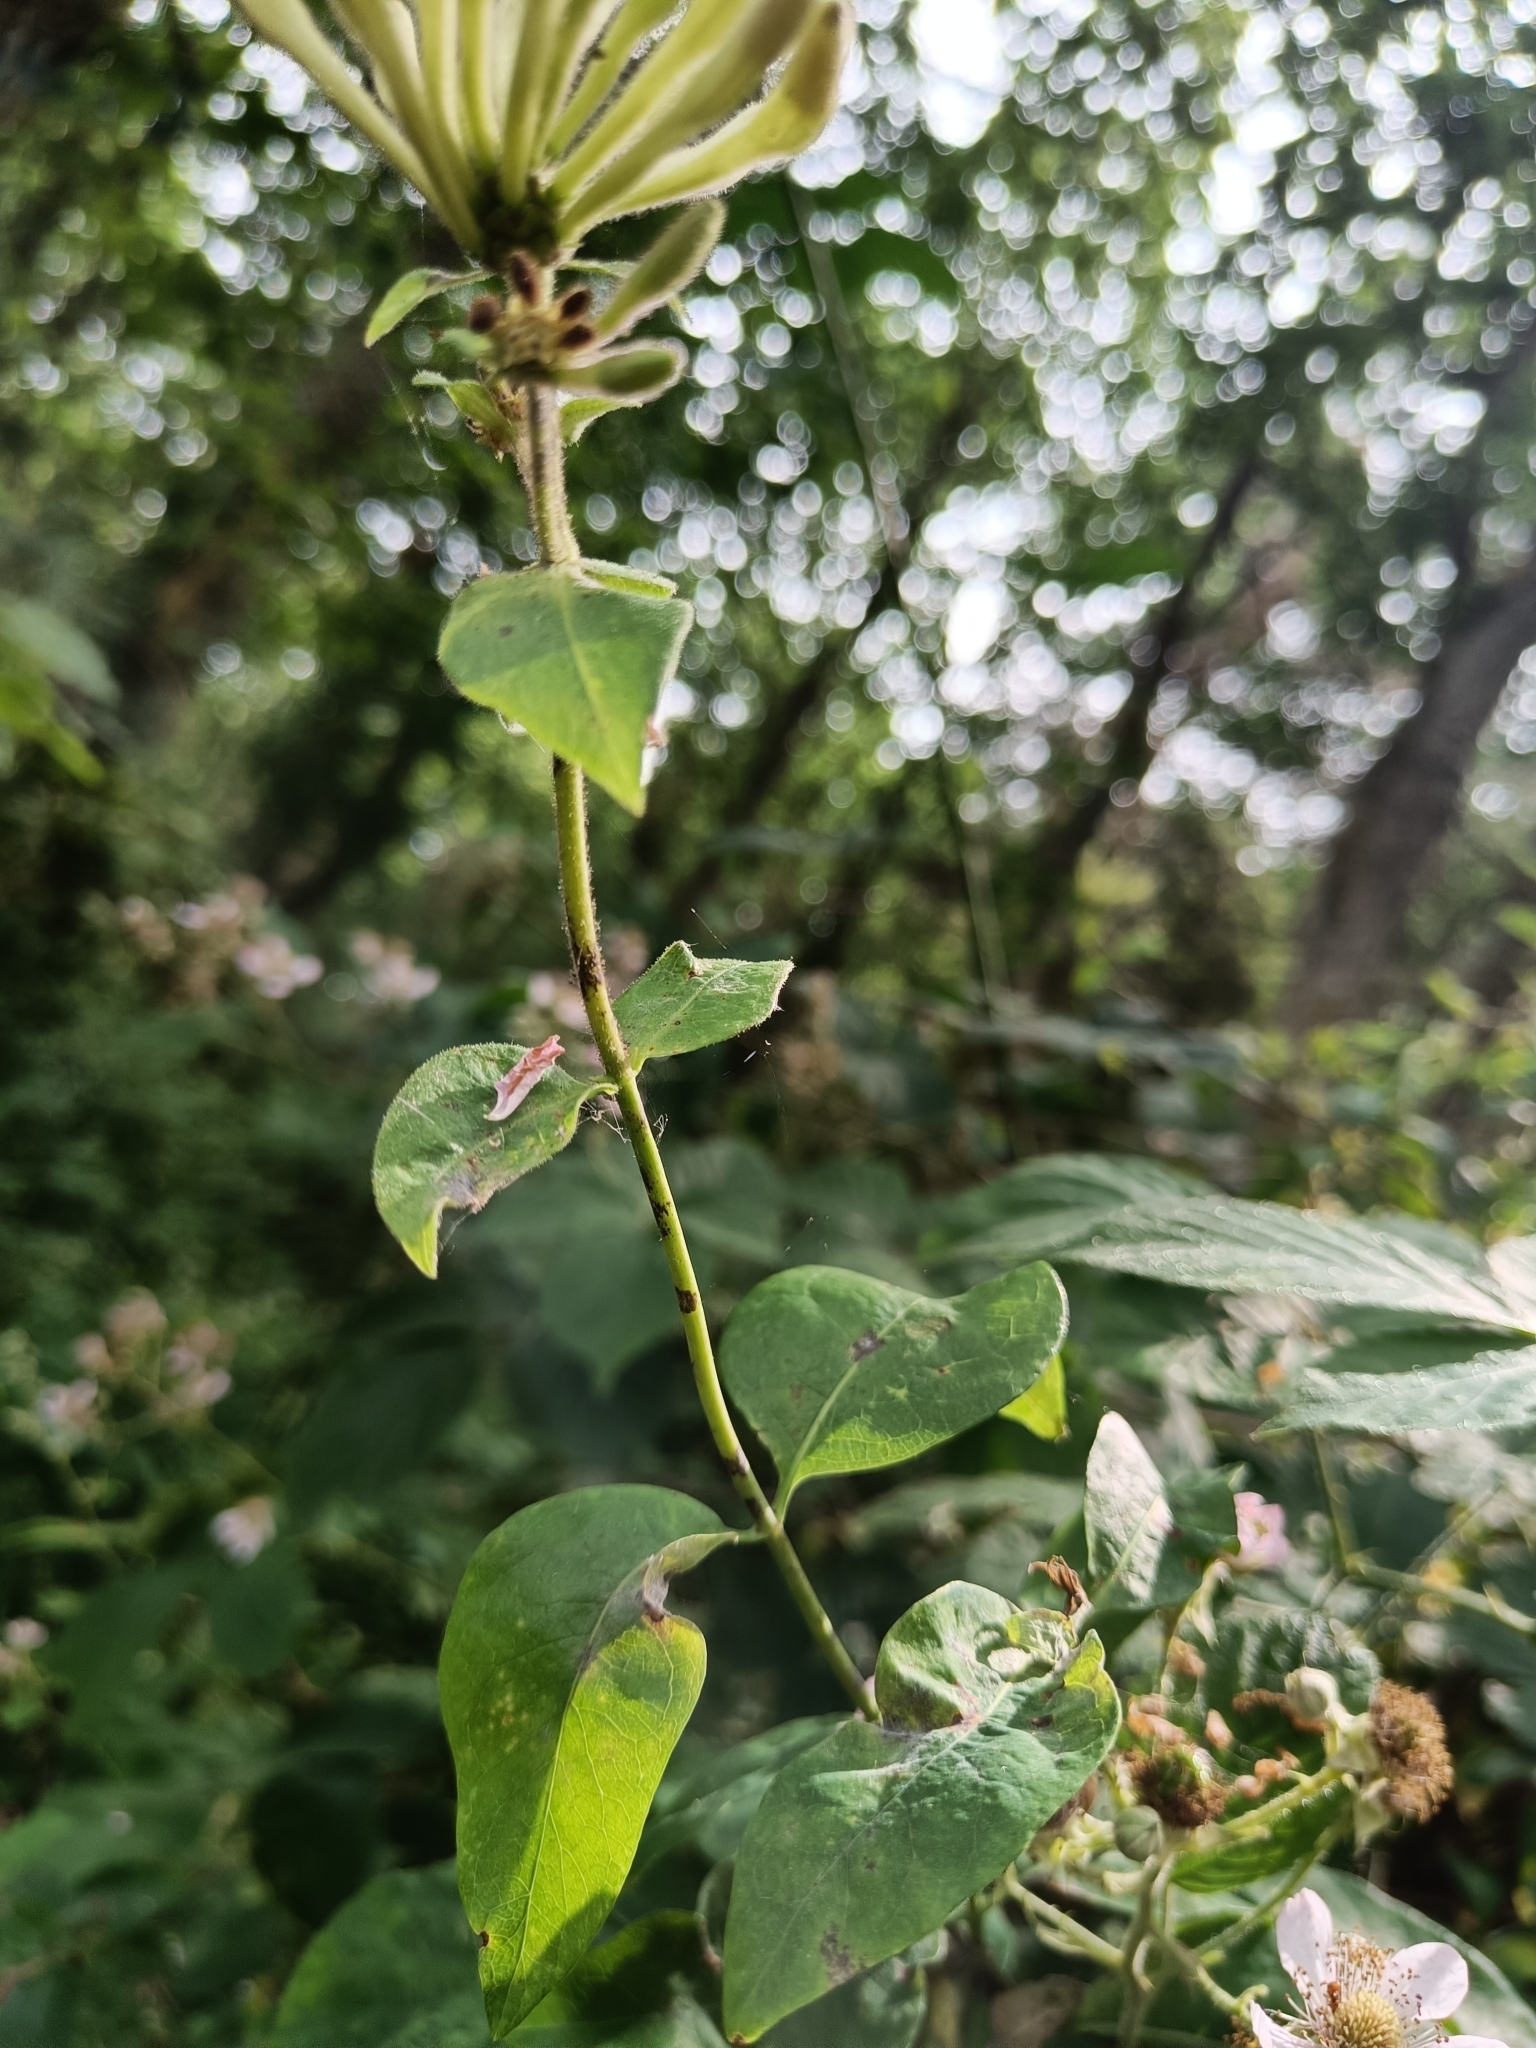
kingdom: Plantae
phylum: Tracheophyta
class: Magnoliopsida
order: Dipsacales
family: Caprifoliaceae
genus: Lonicera
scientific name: Lonicera periclymenum
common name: European honeysuckle
